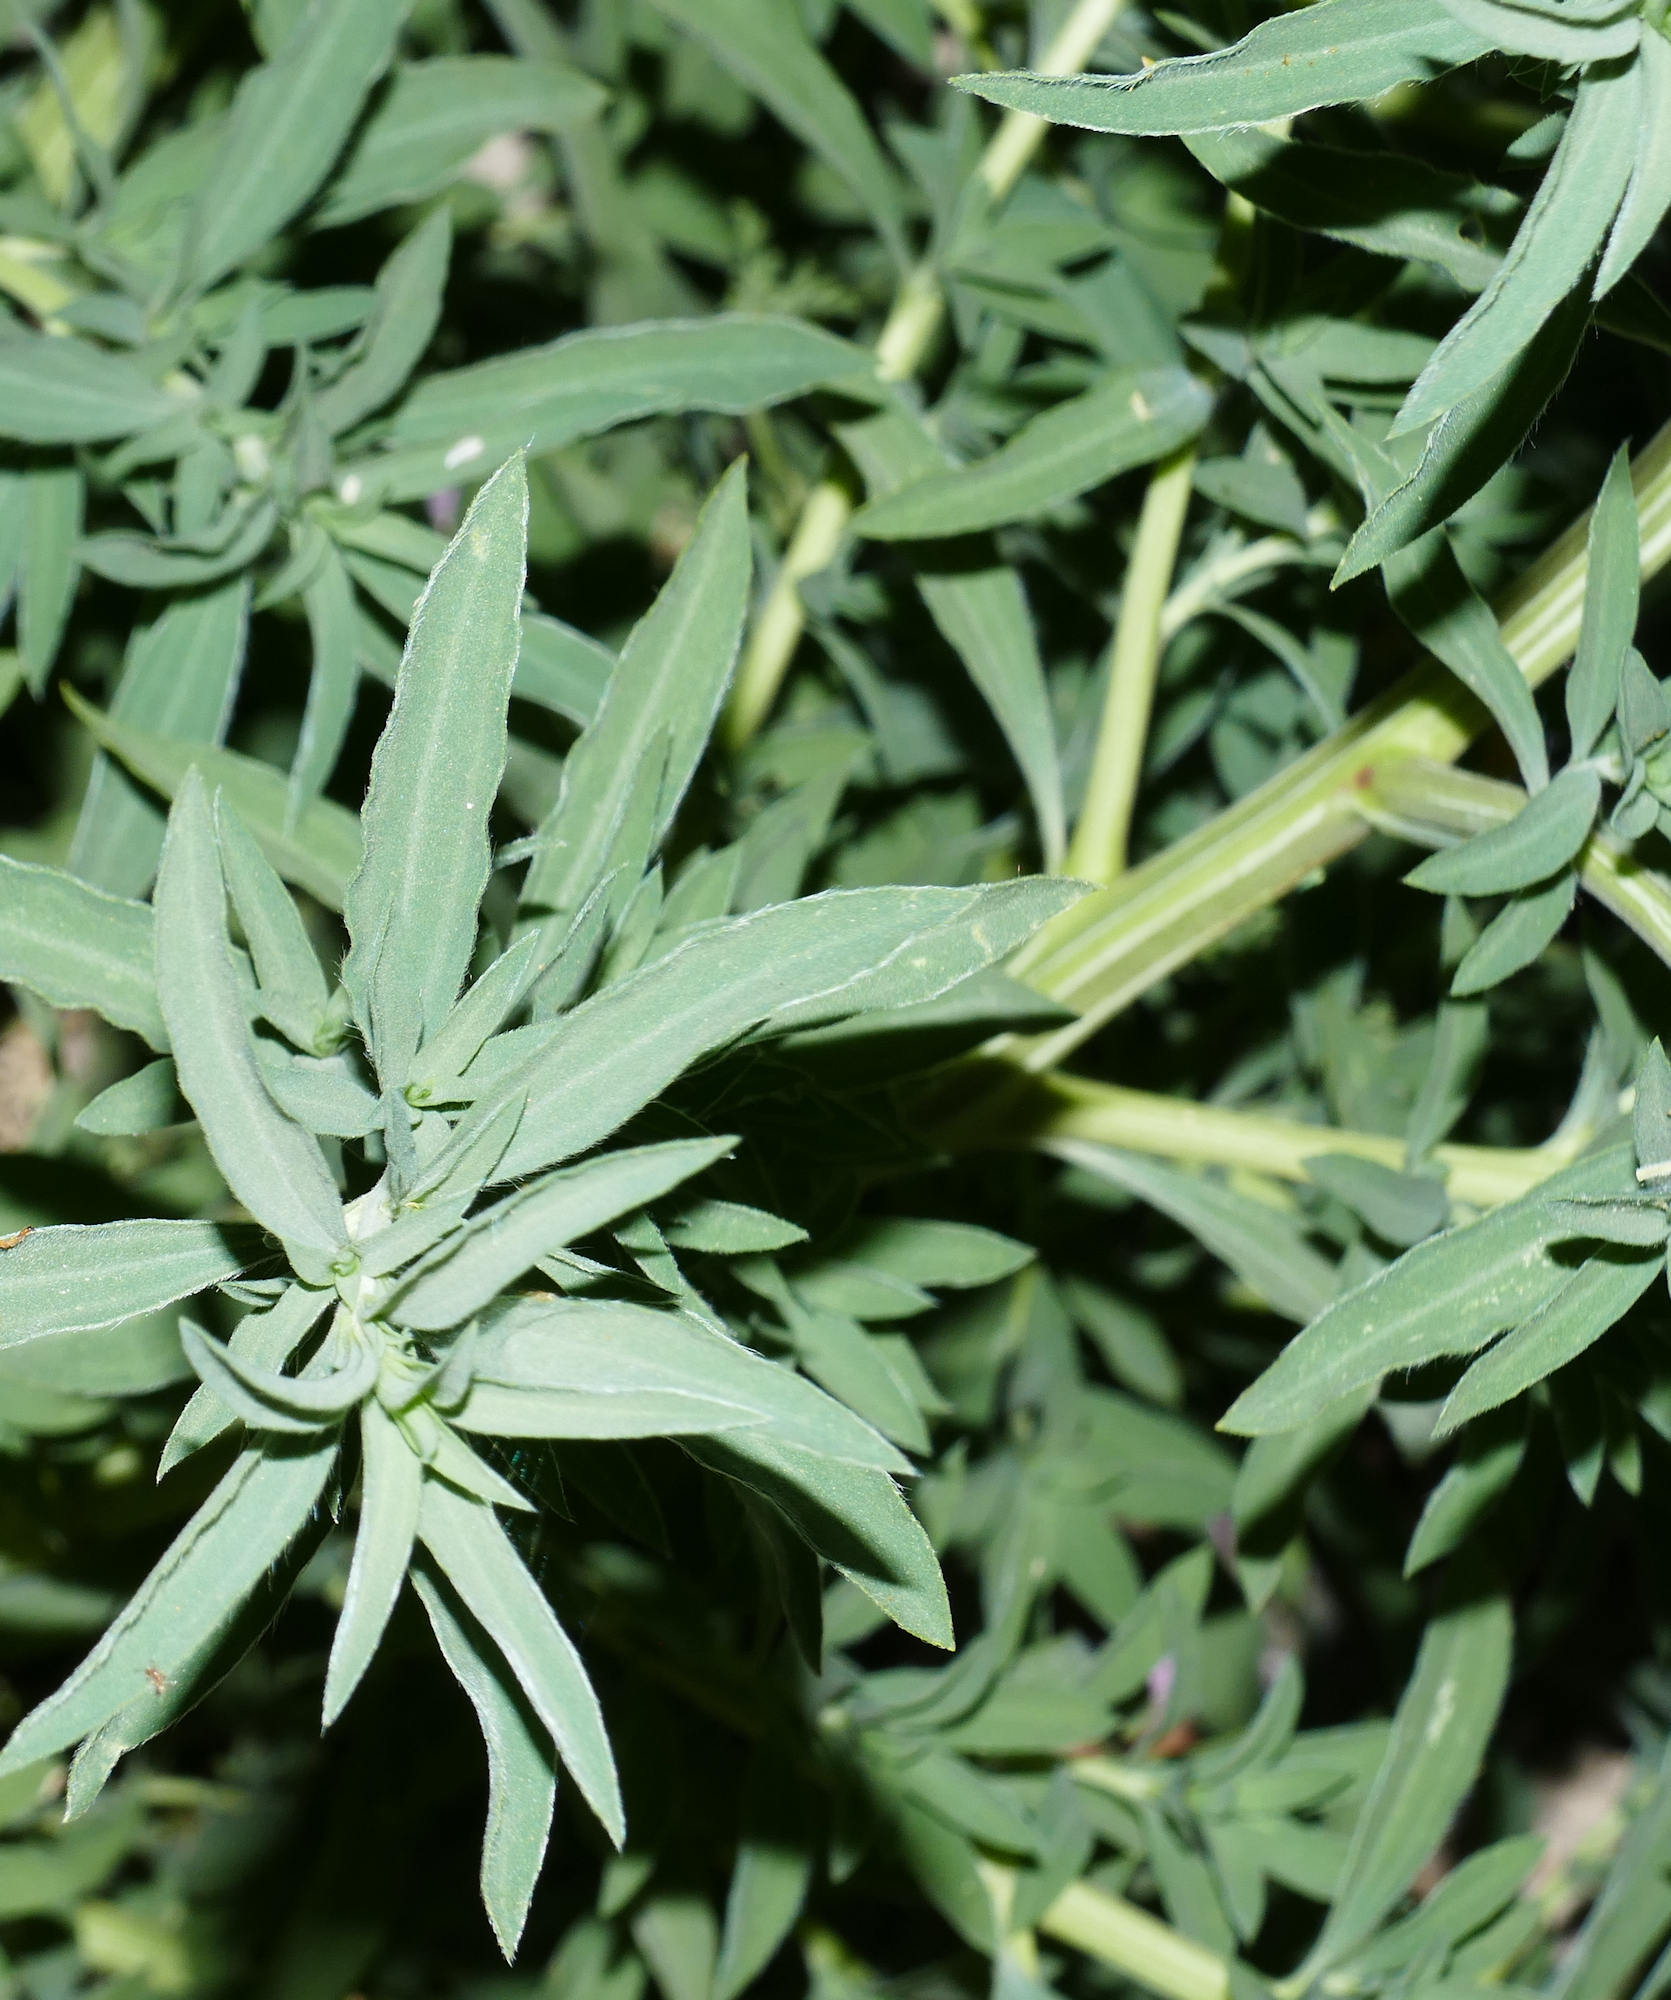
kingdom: Plantae
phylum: Tracheophyta
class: Magnoliopsida
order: Caryophyllales
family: Amaranthaceae
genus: Bassia
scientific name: Bassia scoparia
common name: Belvedere
